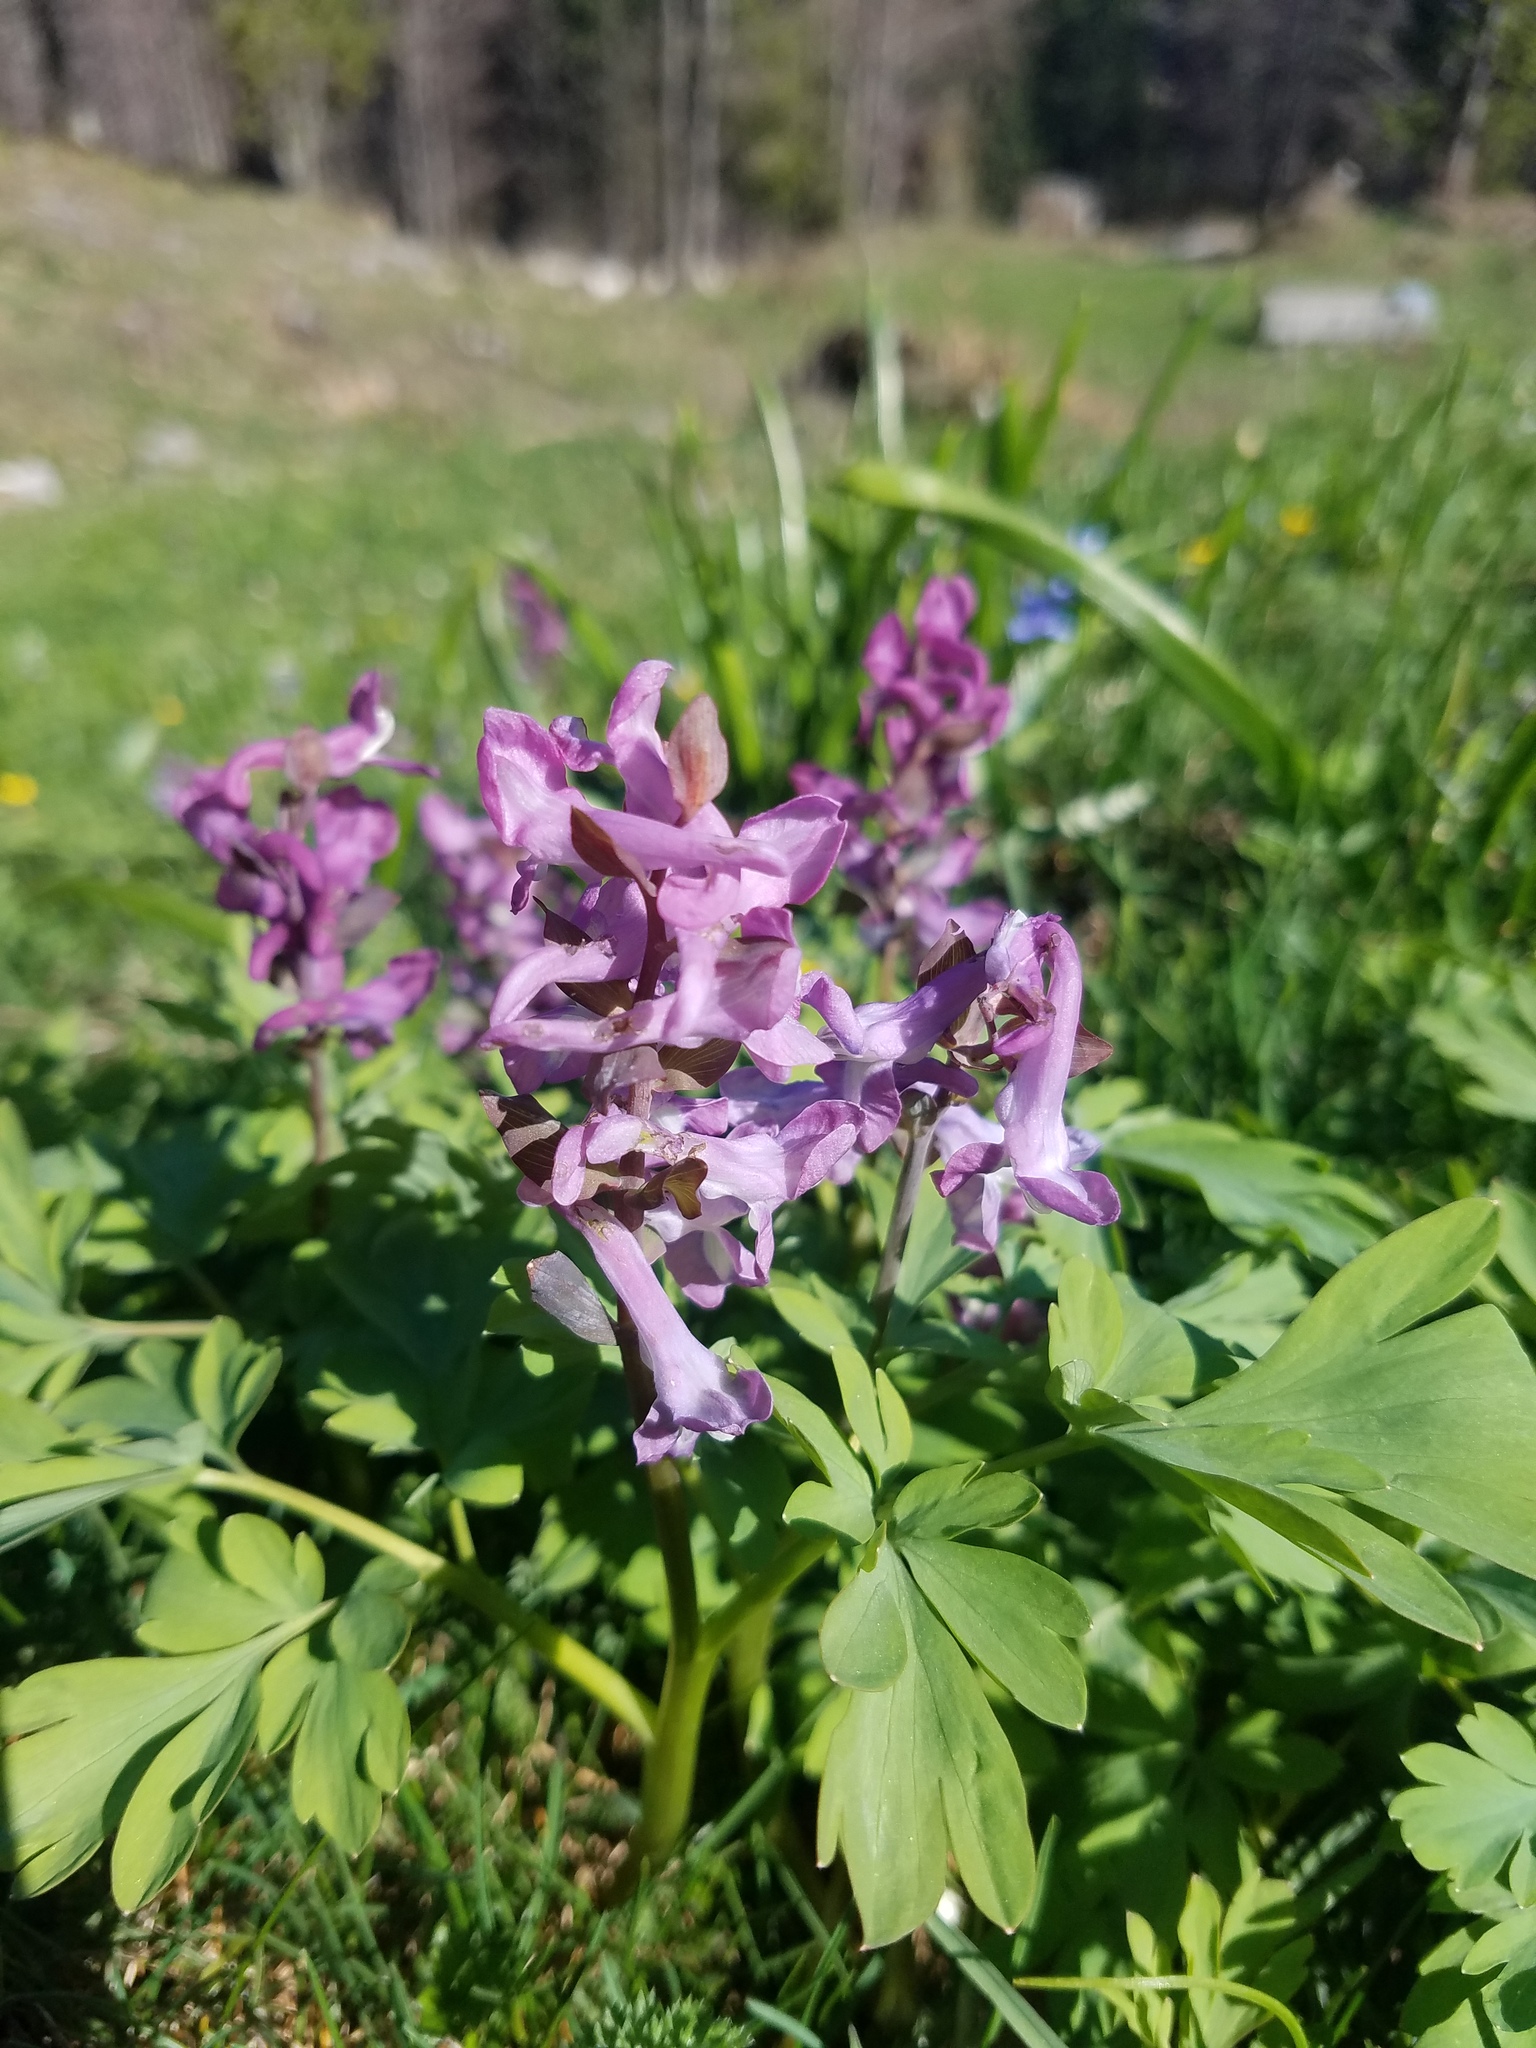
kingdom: Plantae
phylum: Tracheophyta
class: Magnoliopsida
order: Ranunculales
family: Papaveraceae
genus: Corydalis
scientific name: Corydalis cava
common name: Hollowroot
